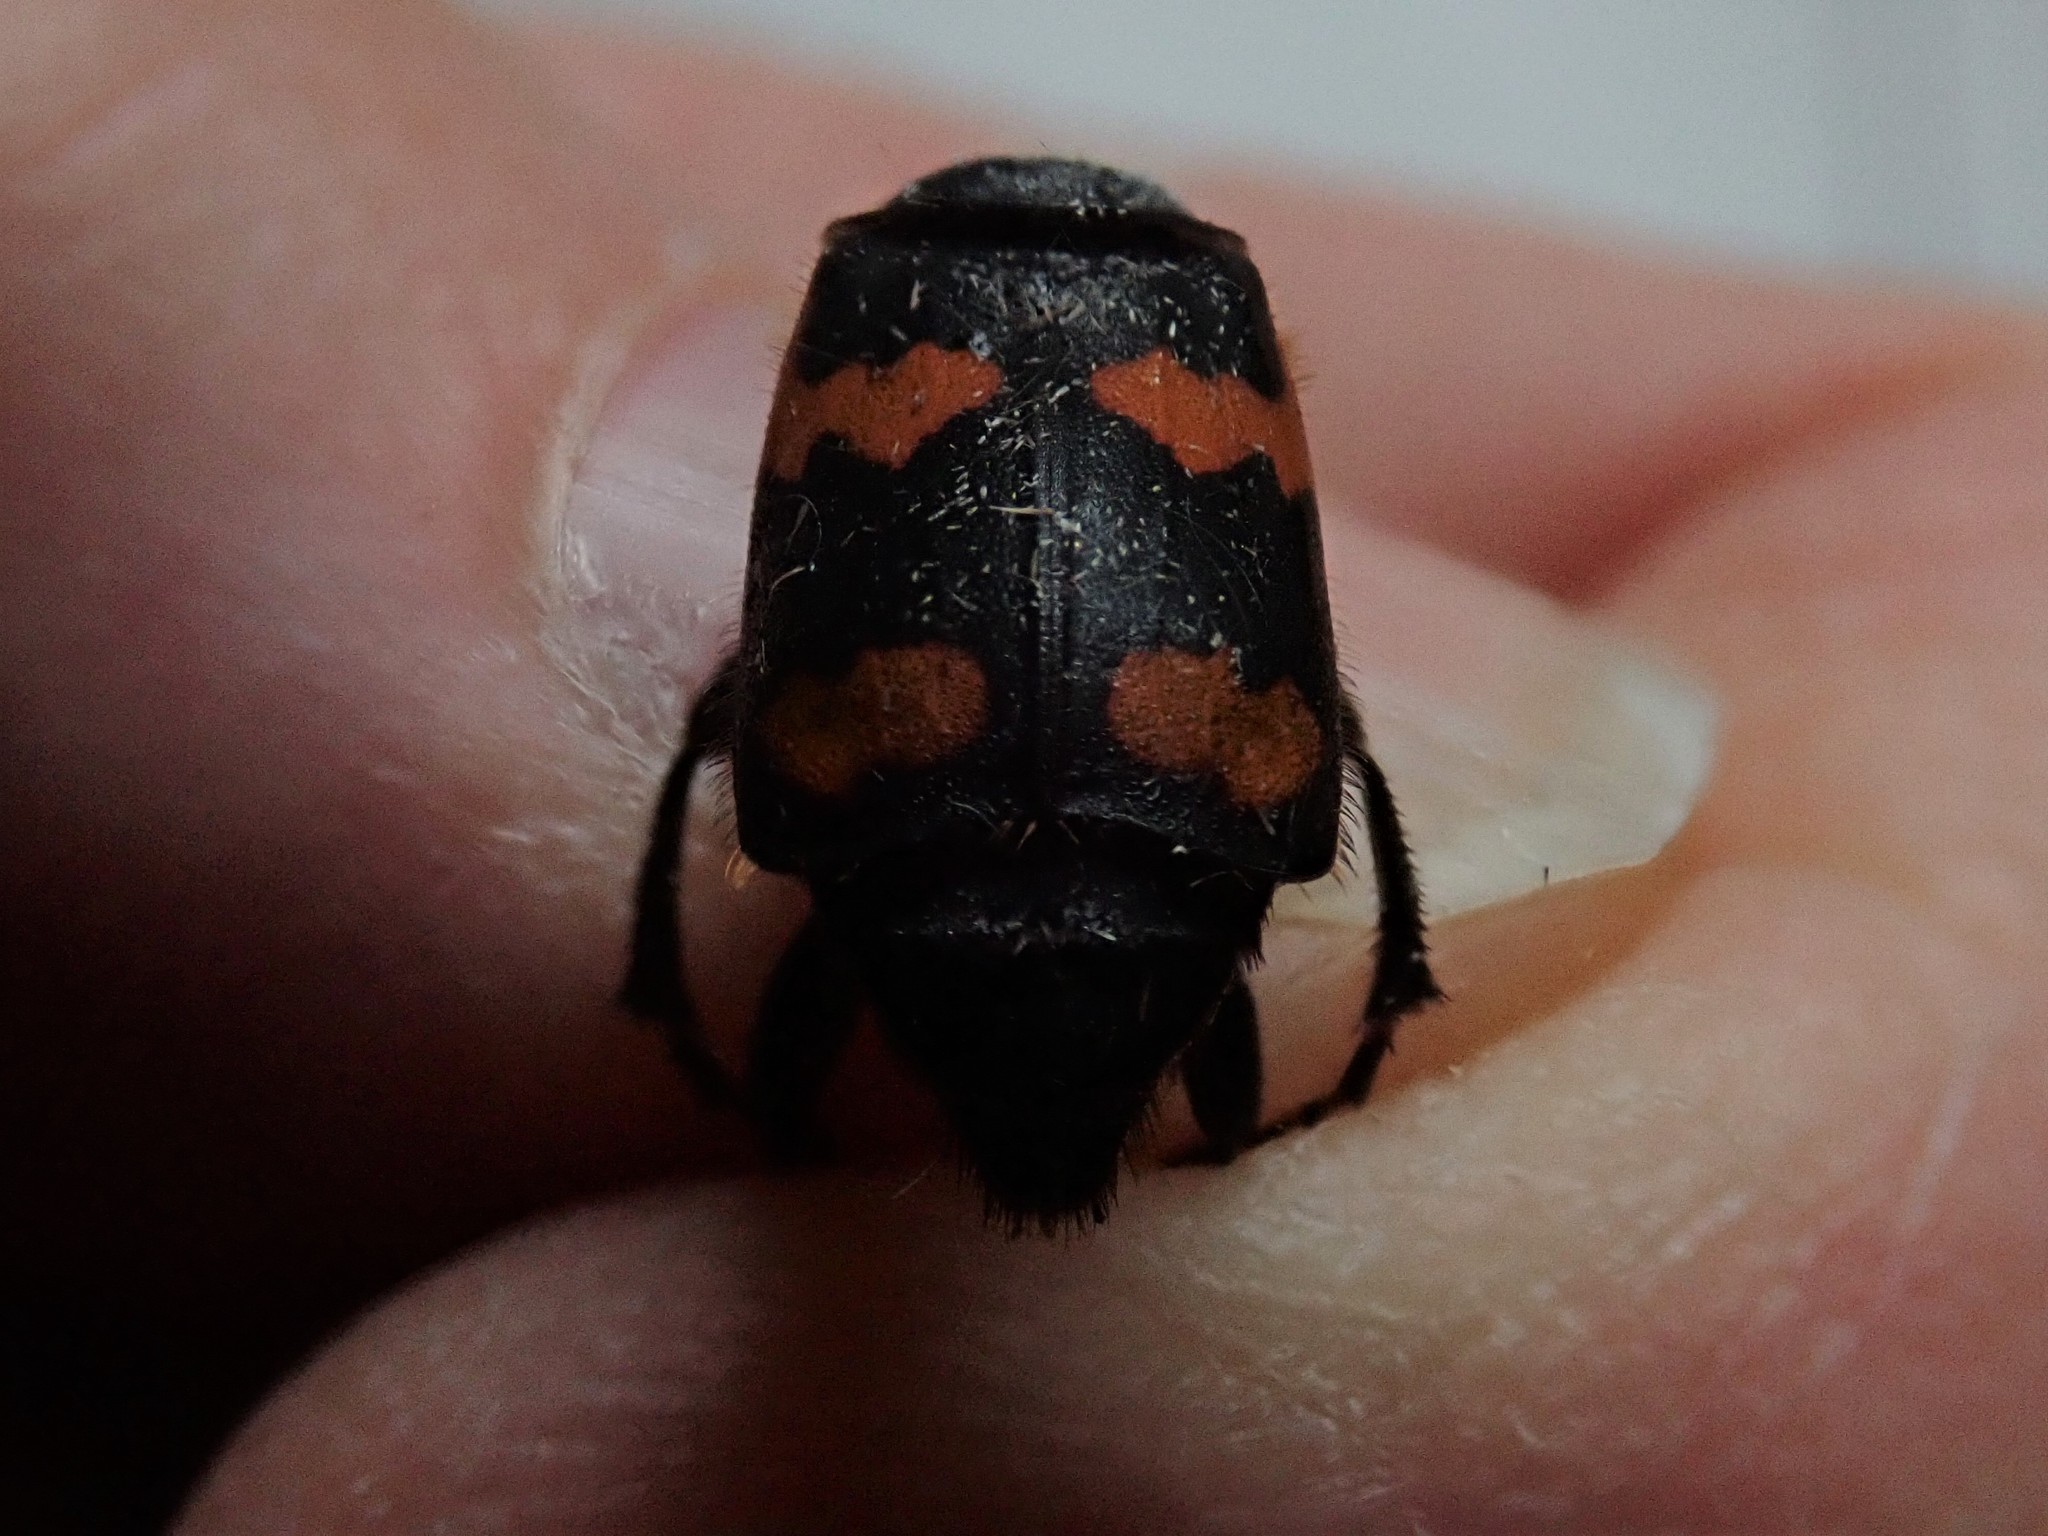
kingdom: Animalia
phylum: Arthropoda
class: Insecta
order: Coleoptera
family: Staphylinidae
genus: Nicrophorus
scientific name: Nicrophorus sayi
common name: Say's burying beetle
